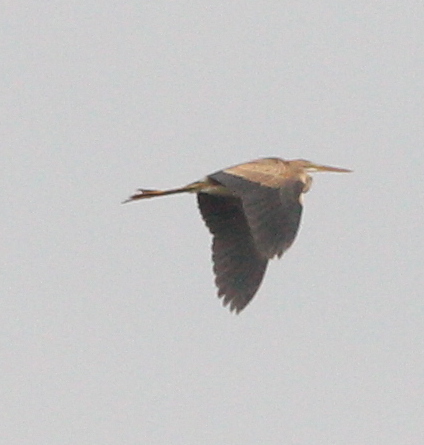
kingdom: Animalia
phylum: Chordata
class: Aves
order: Pelecaniformes
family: Ardeidae
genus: Ardea
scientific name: Ardea purpurea
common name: Purple heron
